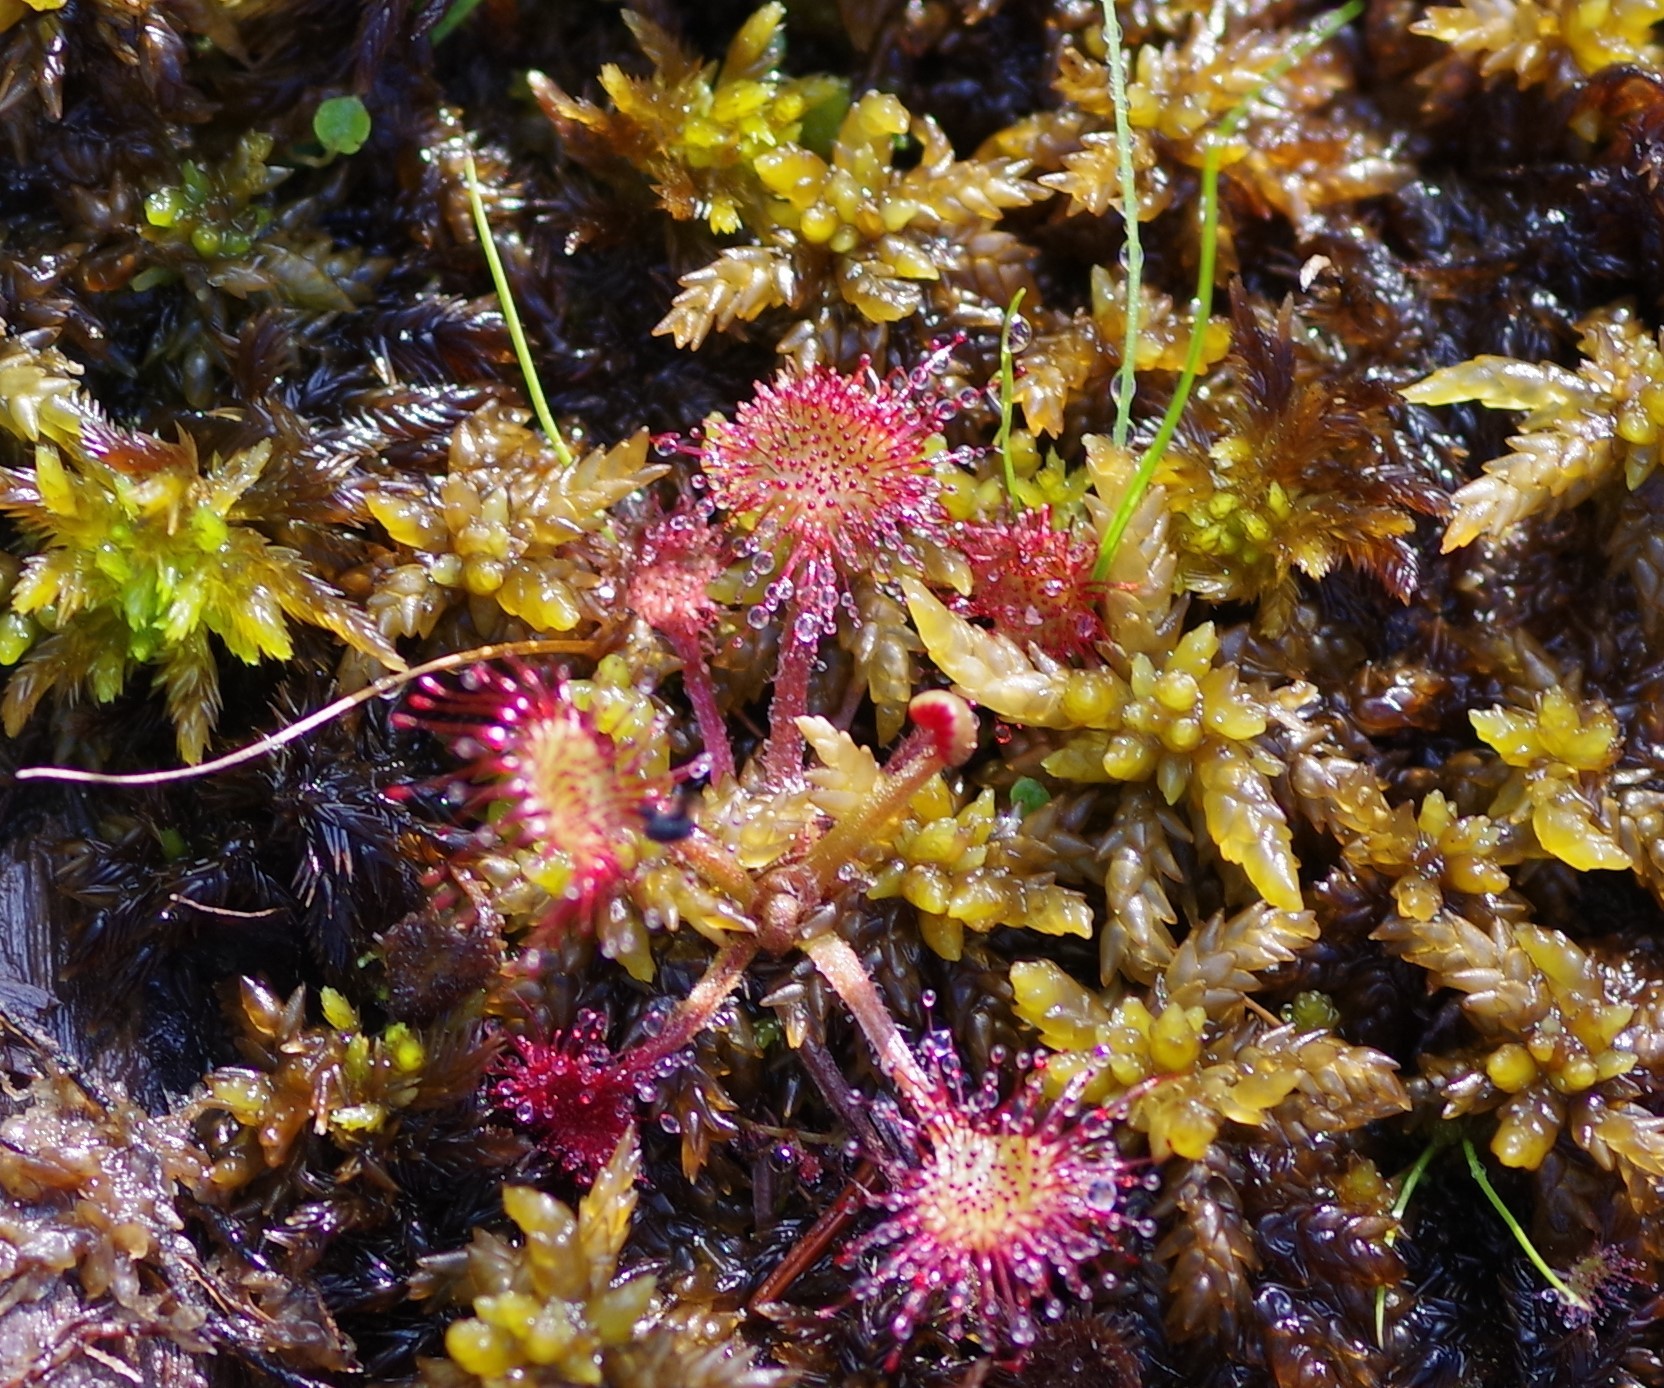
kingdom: Plantae
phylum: Tracheophyta
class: Magnoliopsida
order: Caryophyllales
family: Droseraceae
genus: Drosera
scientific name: Drosera rotundifolia
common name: Round-leaved sundew
